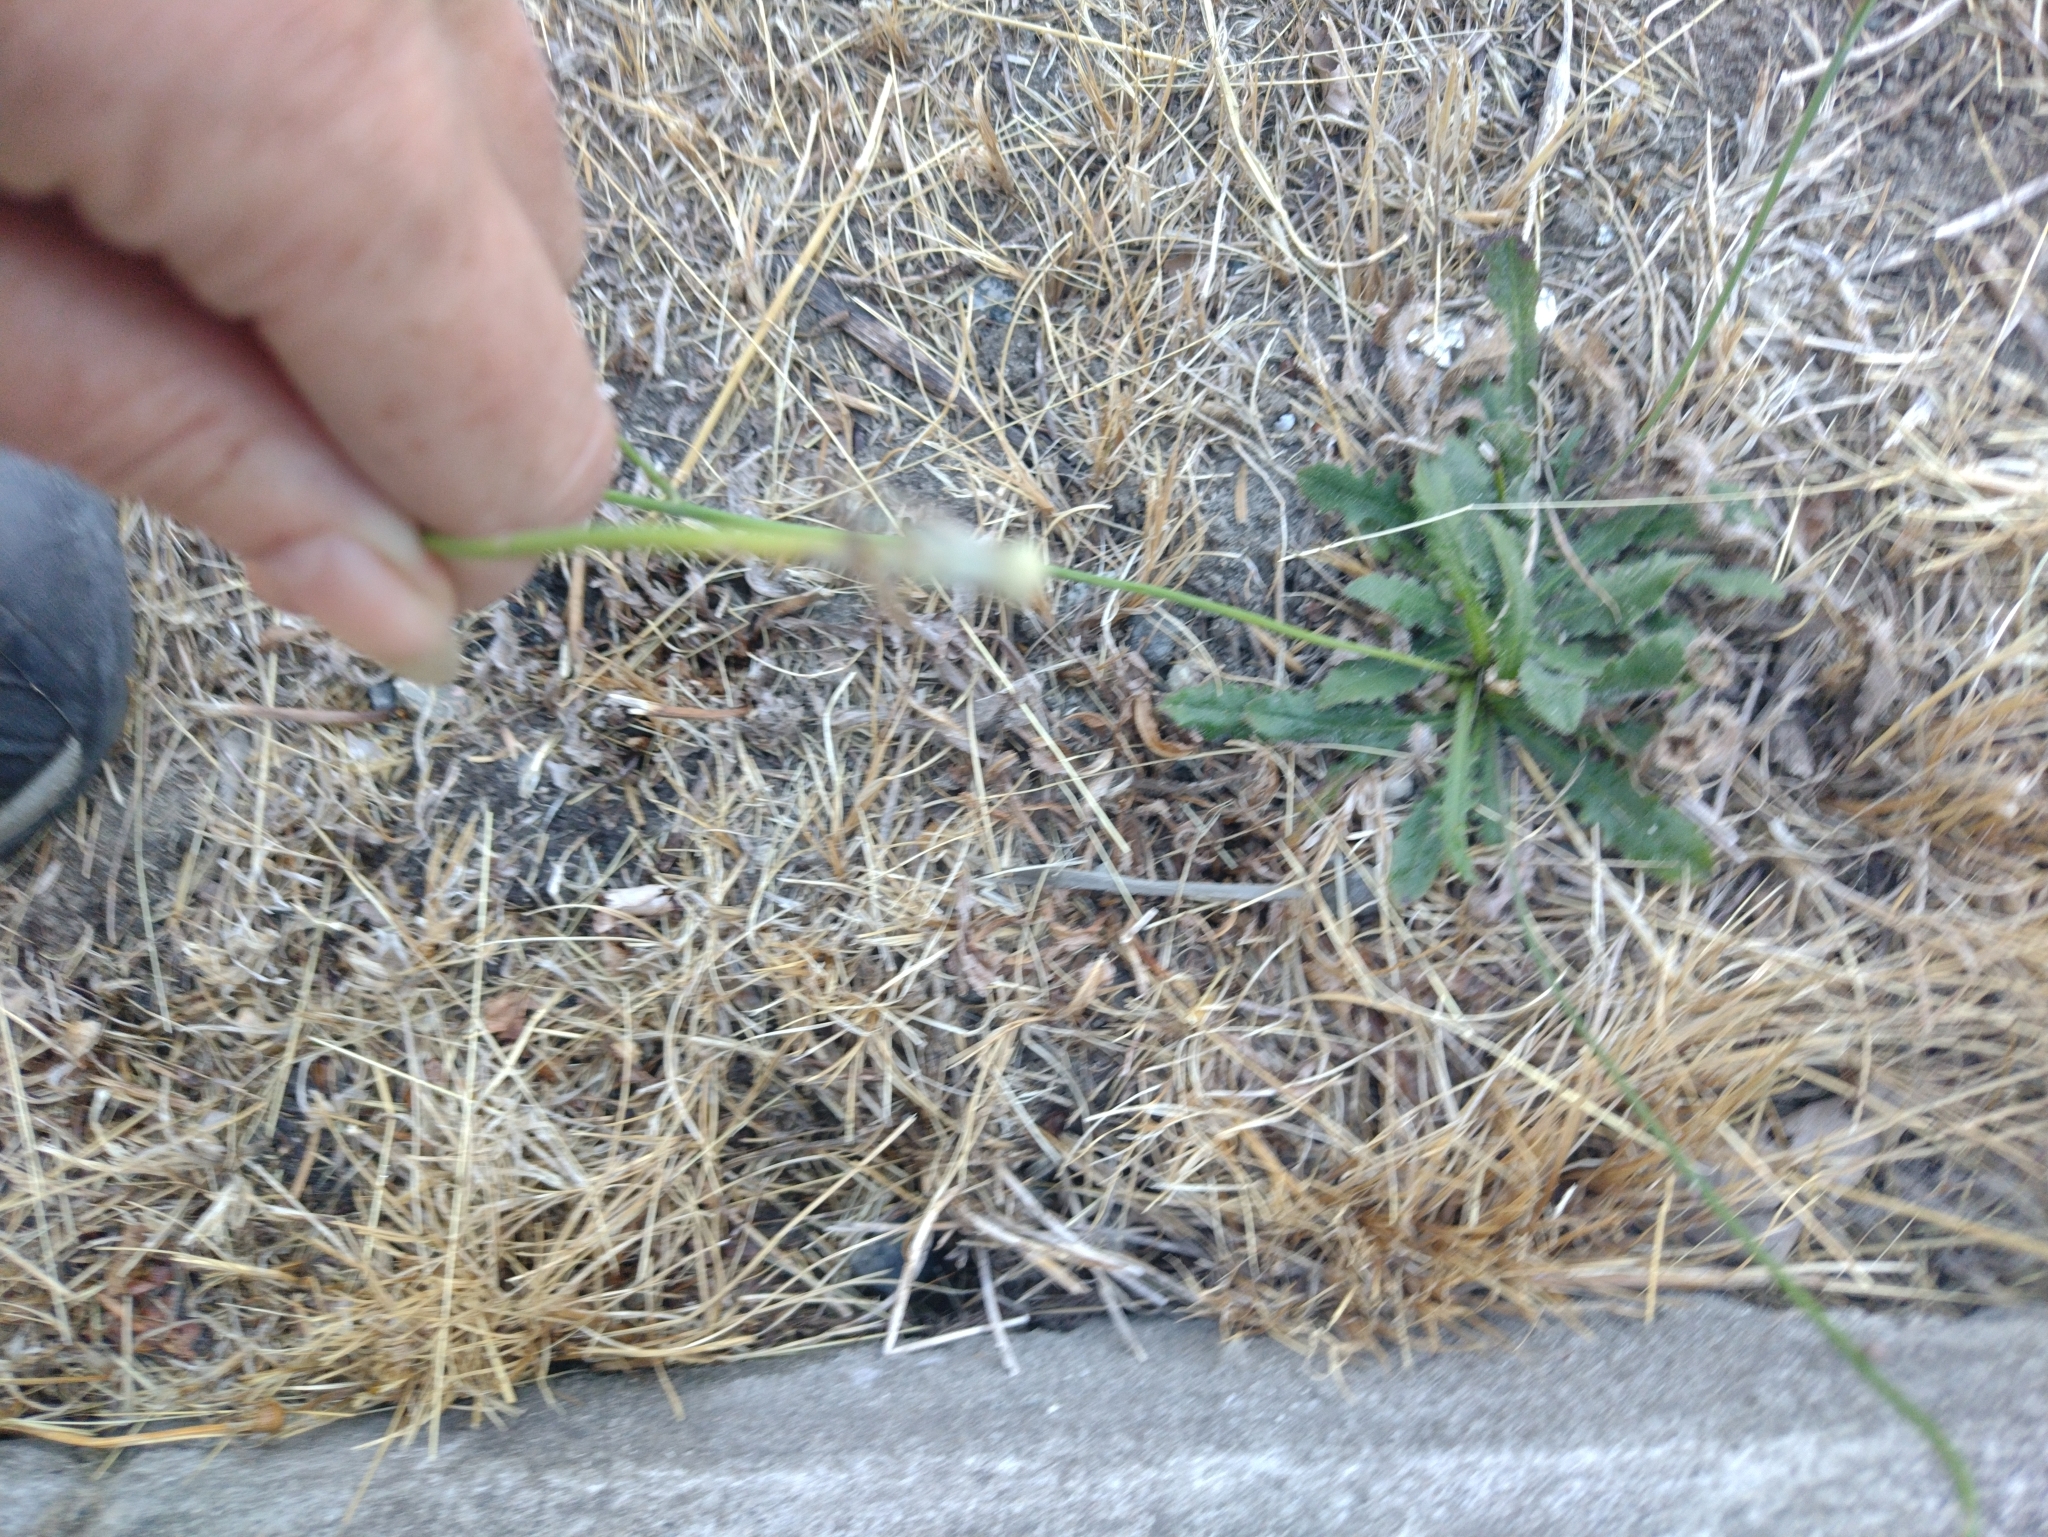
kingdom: Plantae
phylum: Tracheophyta
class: Magnoliopsida
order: Asterales
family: Asteraceae
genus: Hypochaeris
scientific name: Hypochaeris radicata
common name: Flatweed
